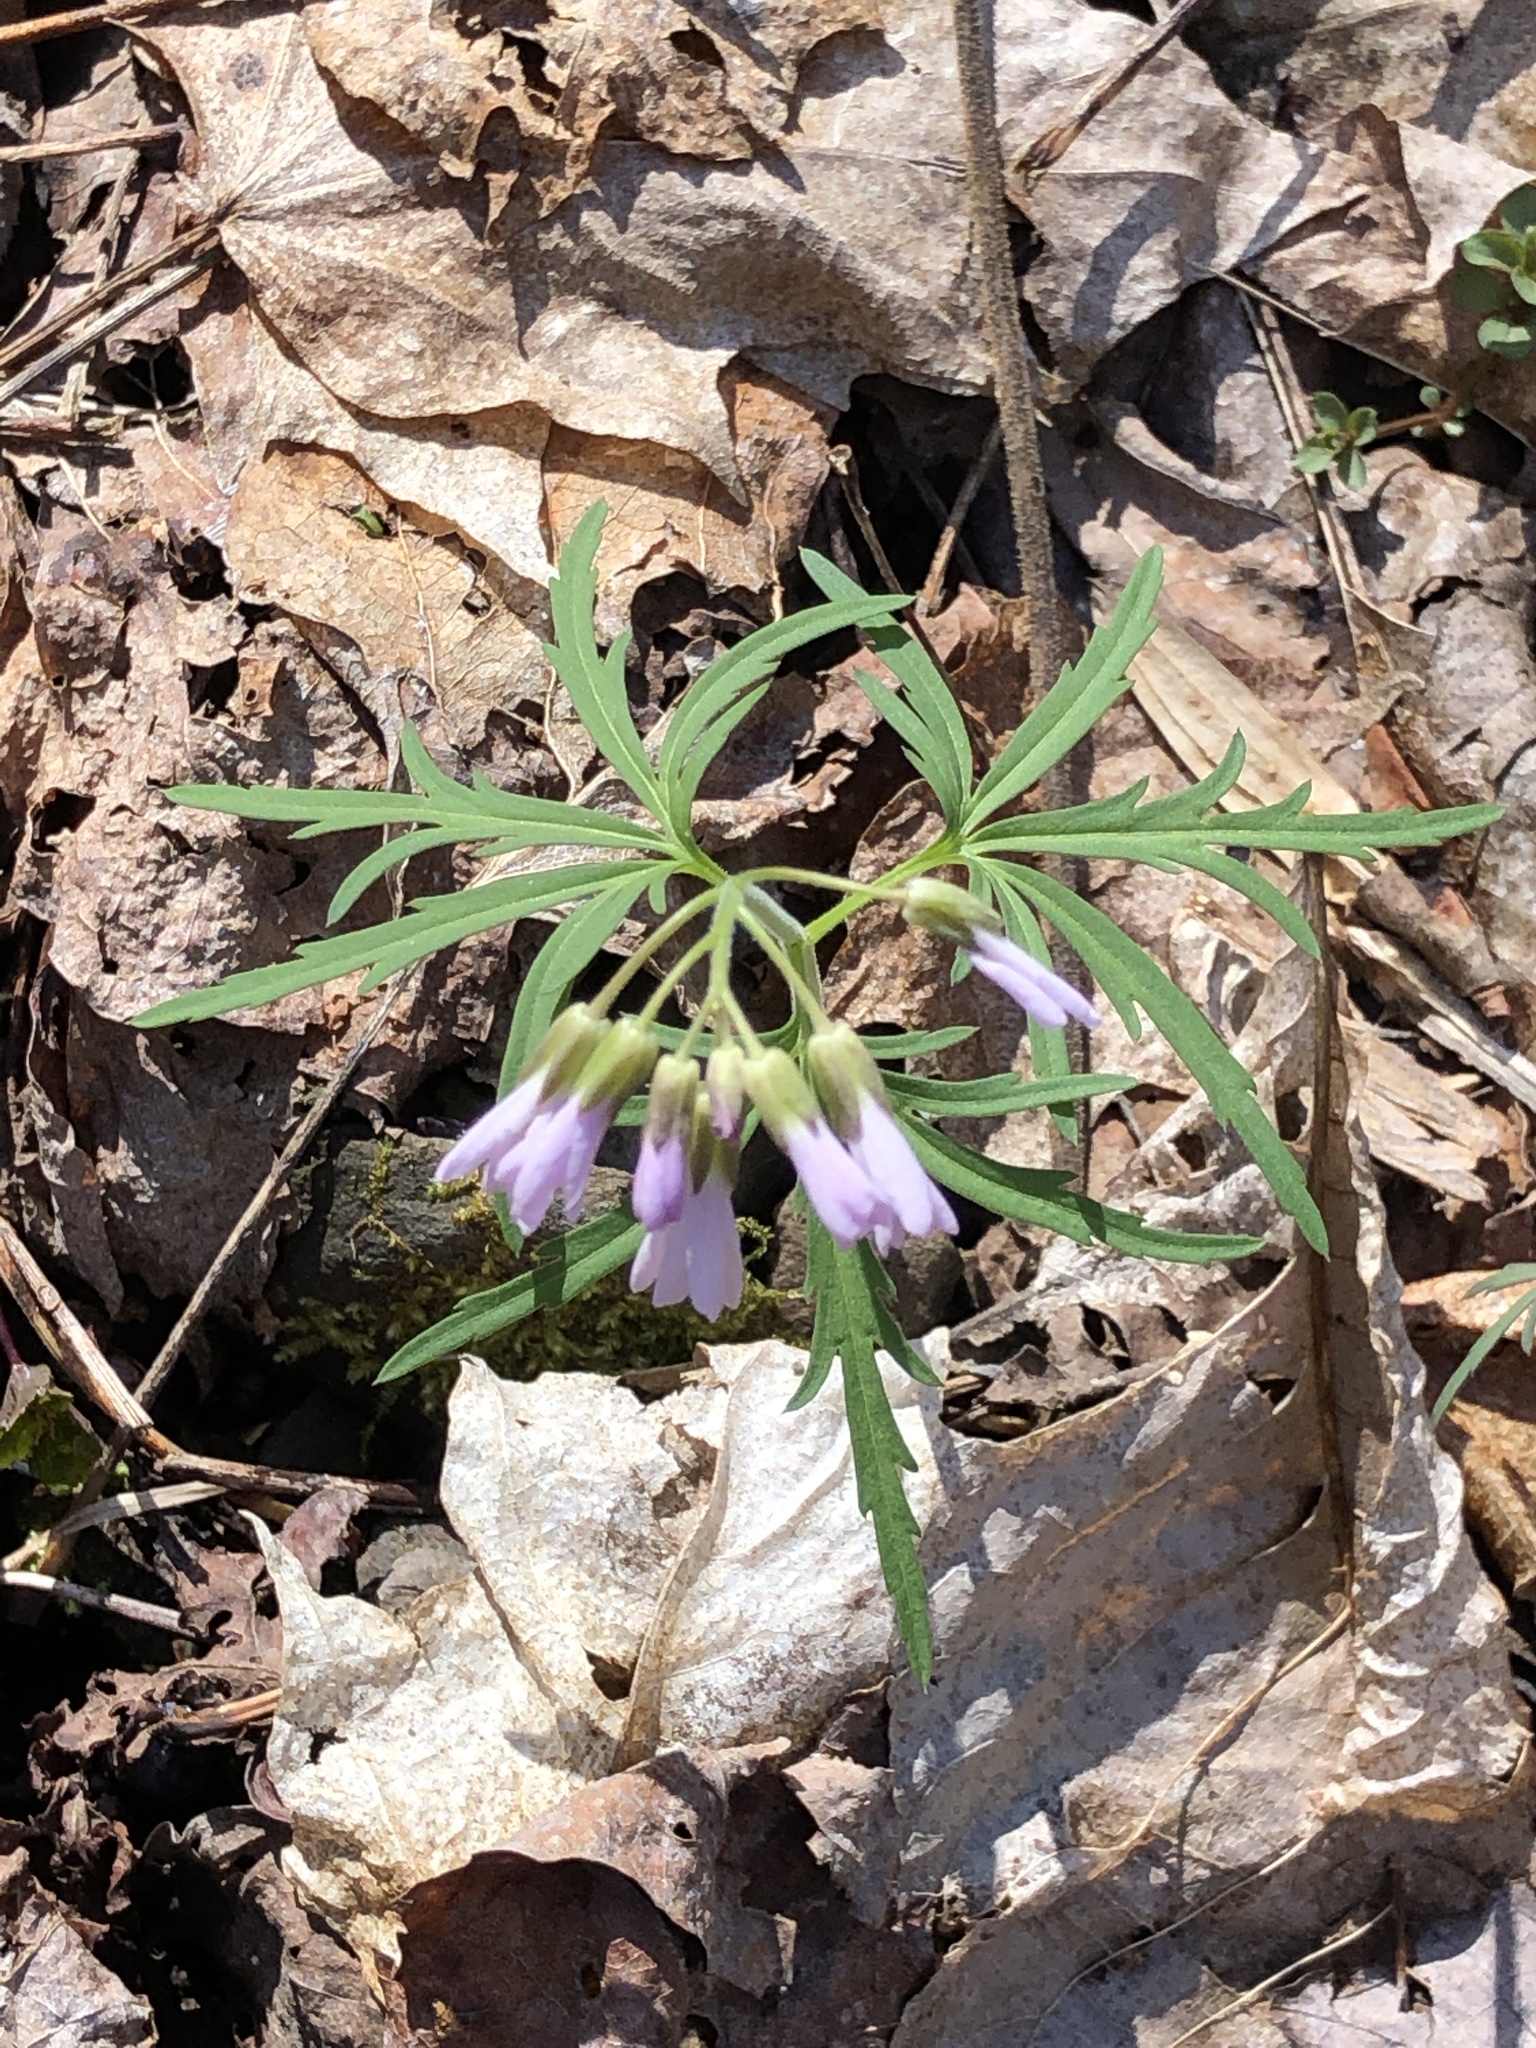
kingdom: Plantae
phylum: Tracheophyta
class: Magnoliopsida
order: Brassicales
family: Brassicaceae
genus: Cardamine
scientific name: Cardamine concatenata
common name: Cut-leaf toothcup
